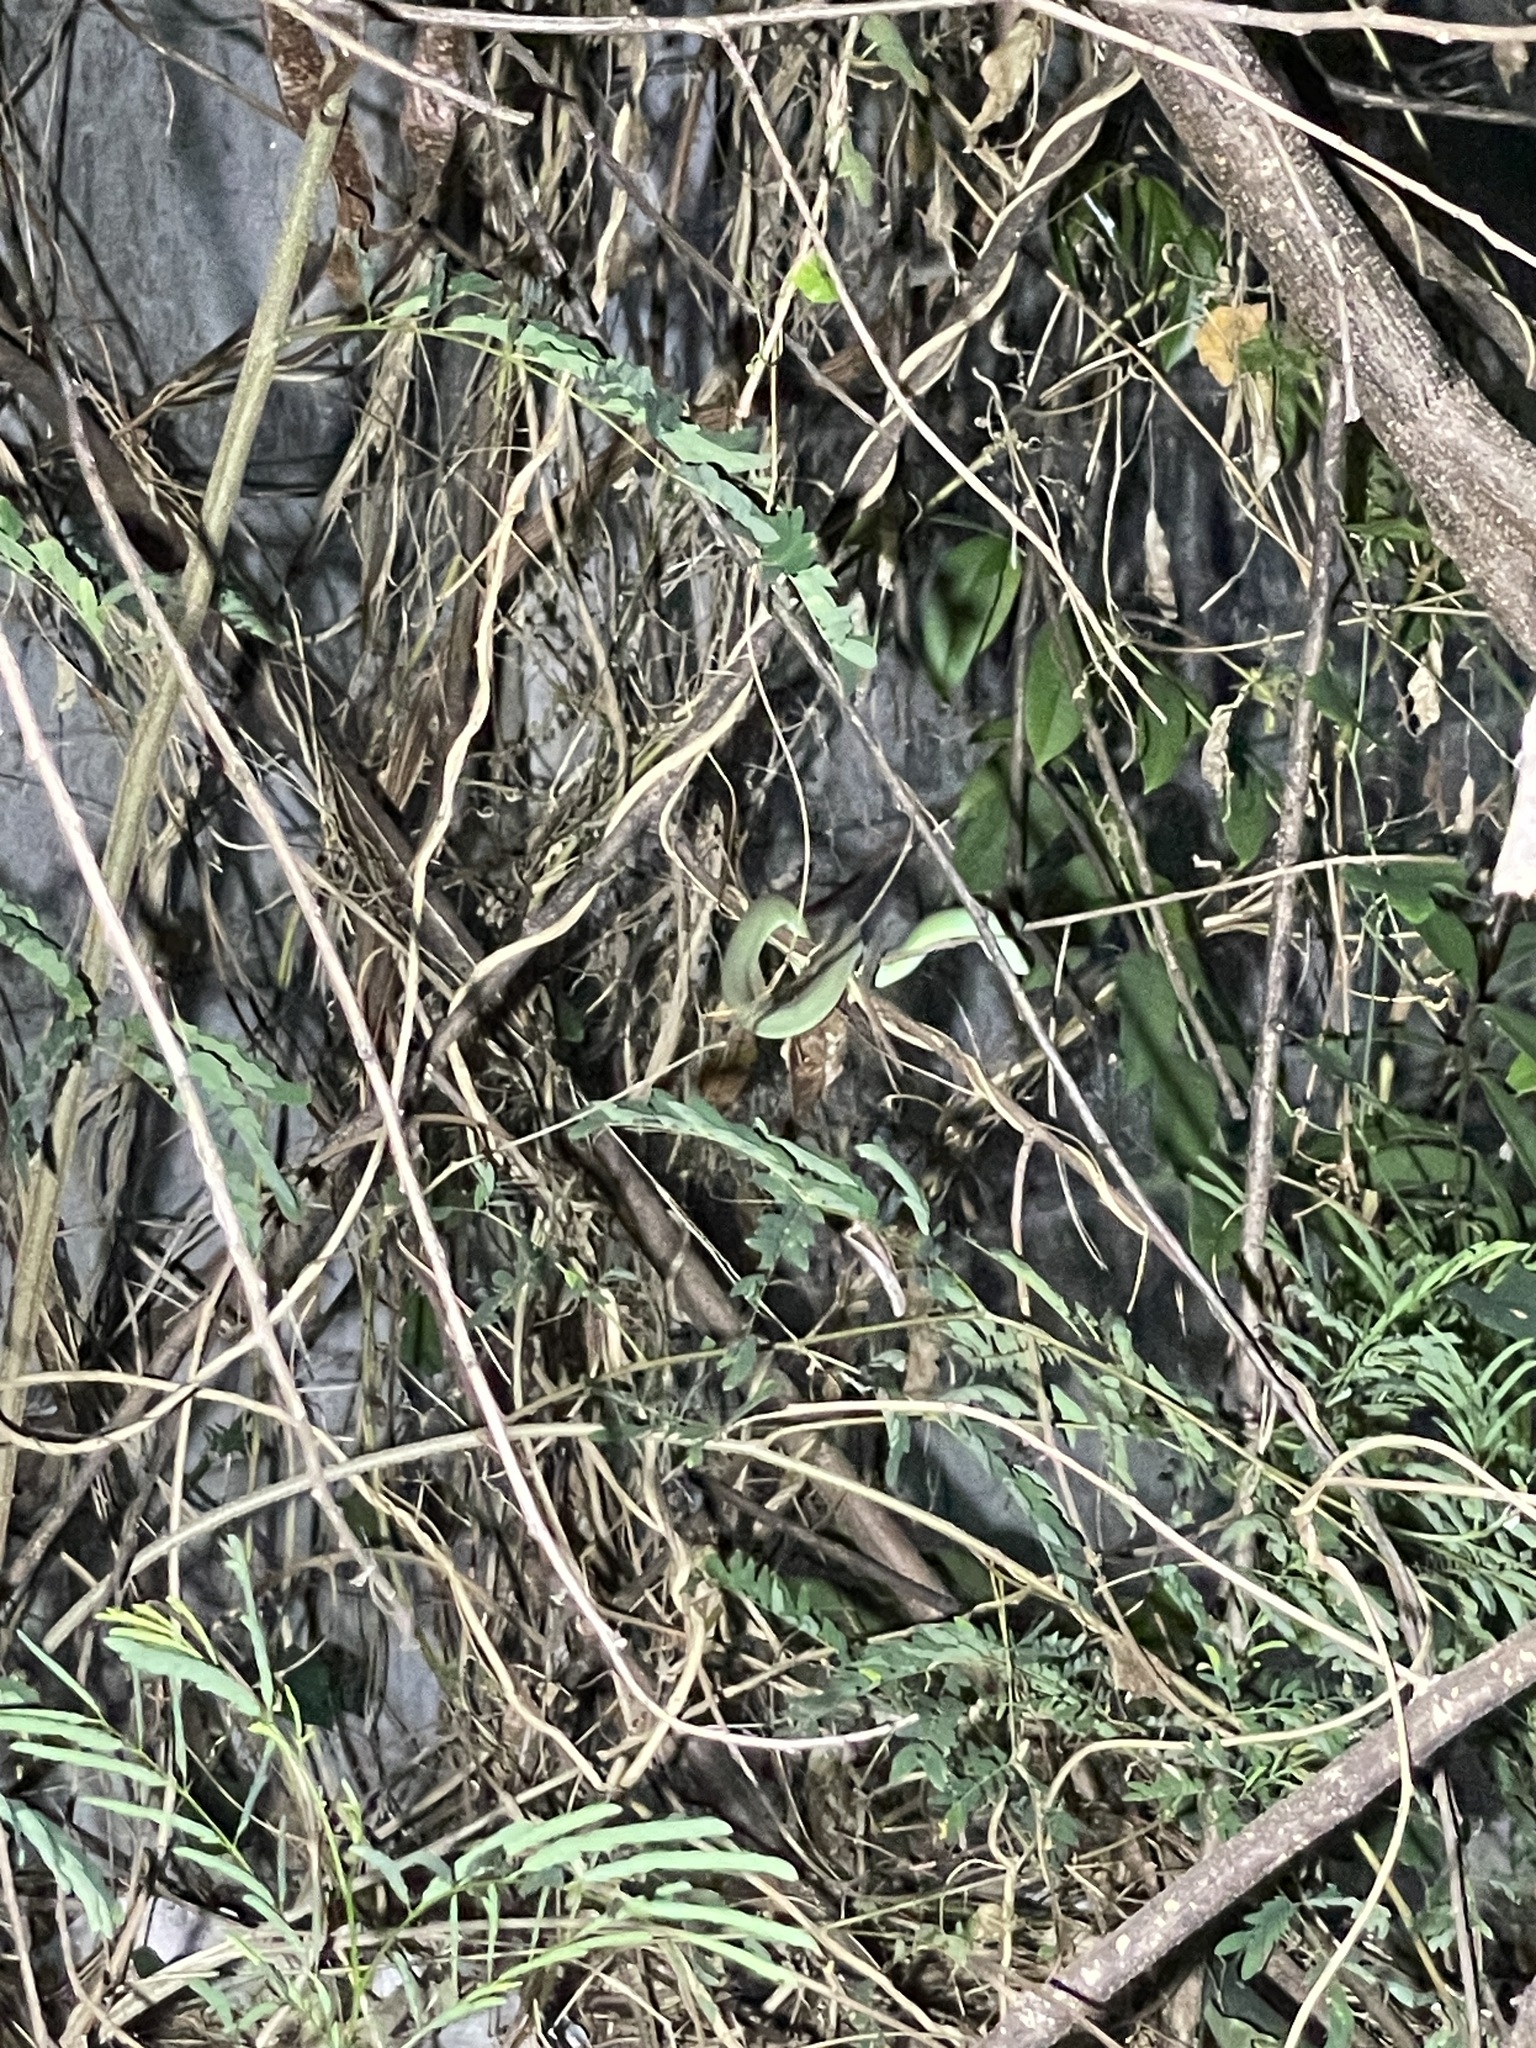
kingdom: Animalia
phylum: Chordata
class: Squamata
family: Viperidae
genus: Trimeresurus
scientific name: Trimeresurus macrops
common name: Kramer's pit viper
